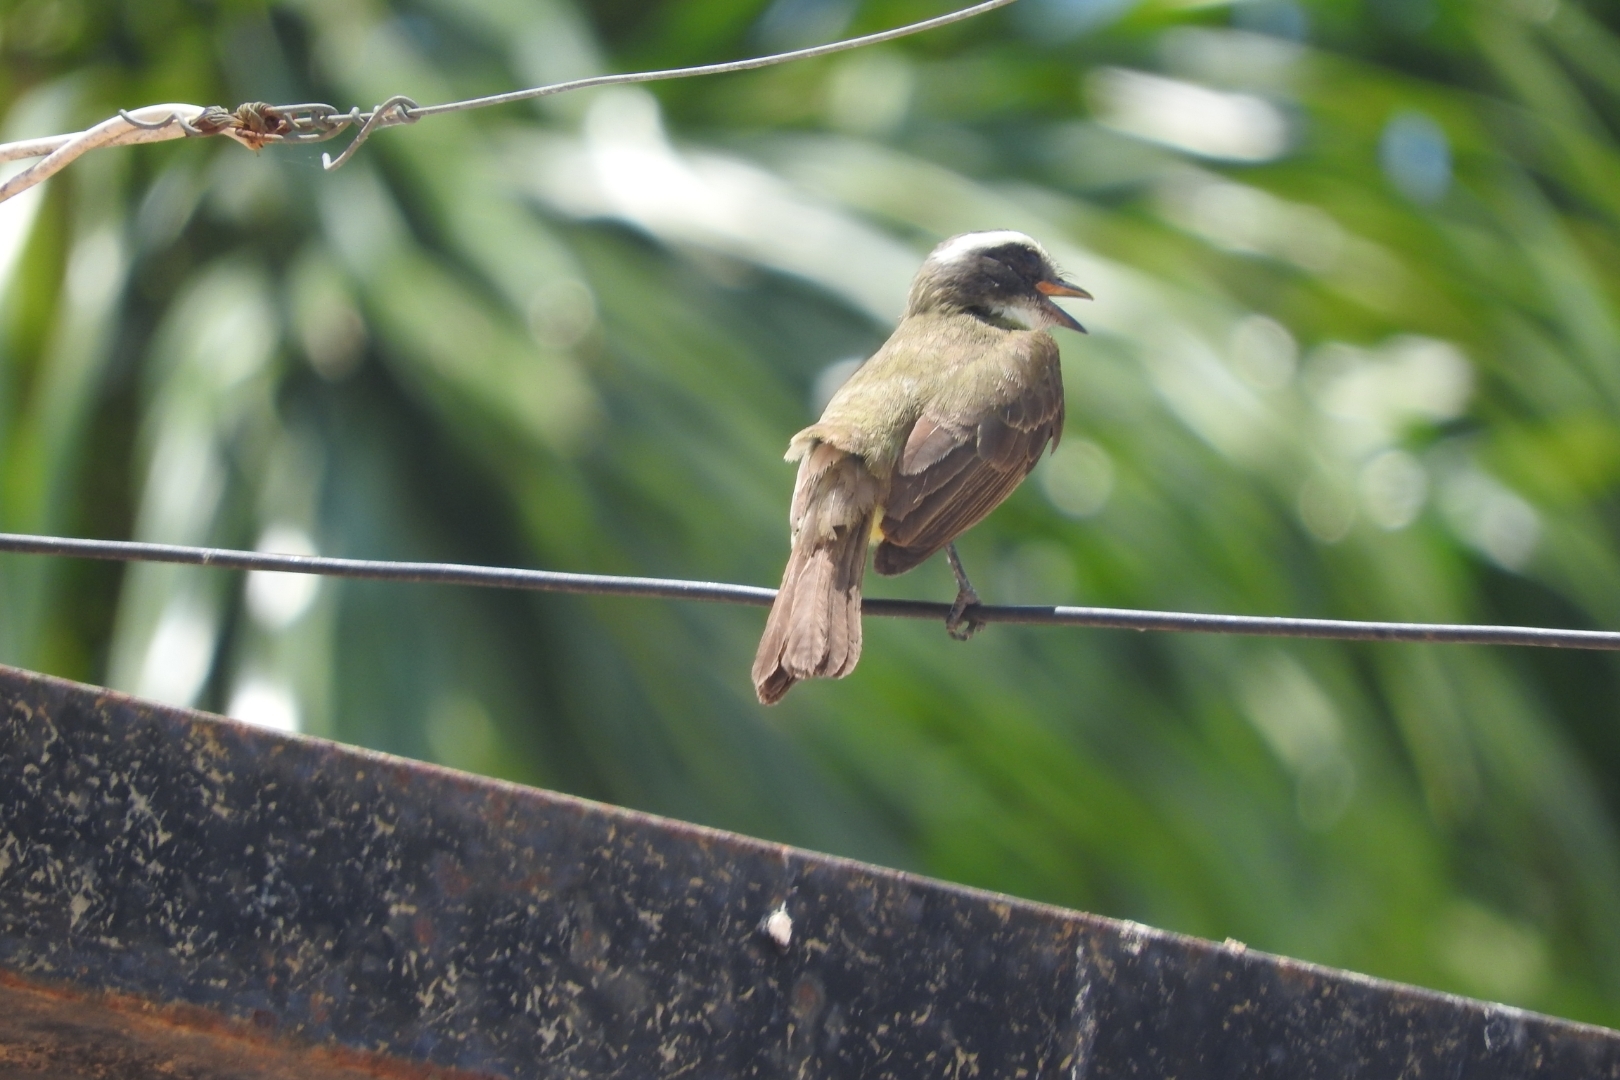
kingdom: Animalia
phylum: Chordata
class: Aves
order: Passeriformes
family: Tyrannidae
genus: Myiozetetes
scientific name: Myiozetetes similis
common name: Social flycatcher
